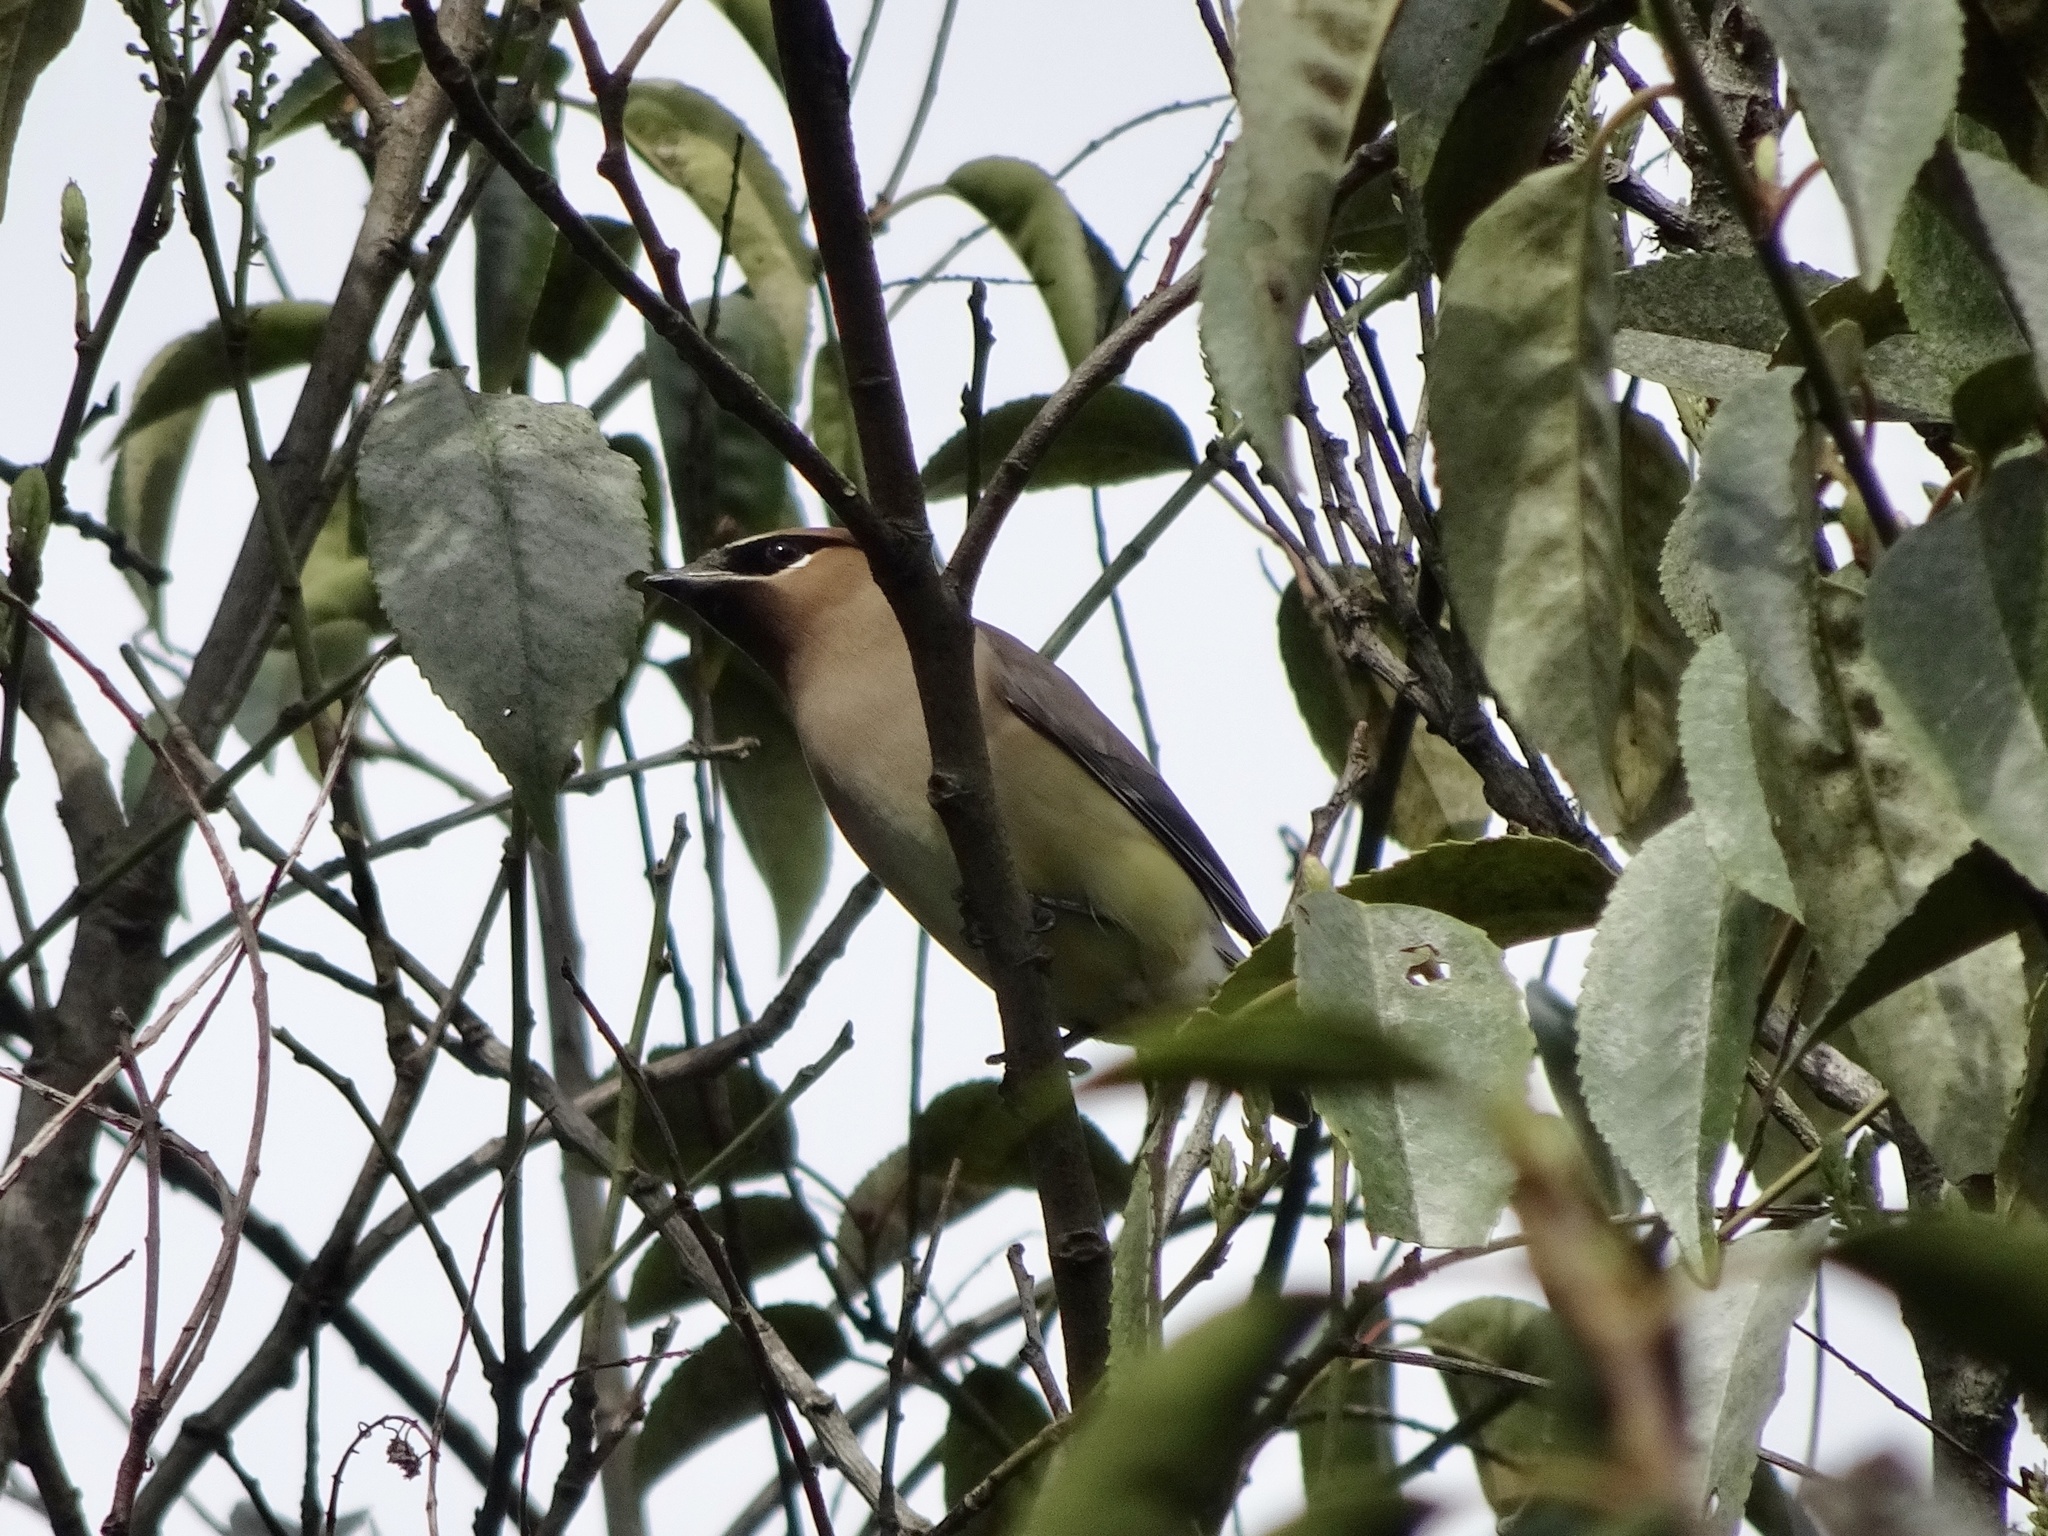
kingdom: Animalia
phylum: Chordata
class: Aves
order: Passeriformes
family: Bombycillidae
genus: Bombycilla
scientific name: Bombycilla cedrorum
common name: Cedar waxwing
